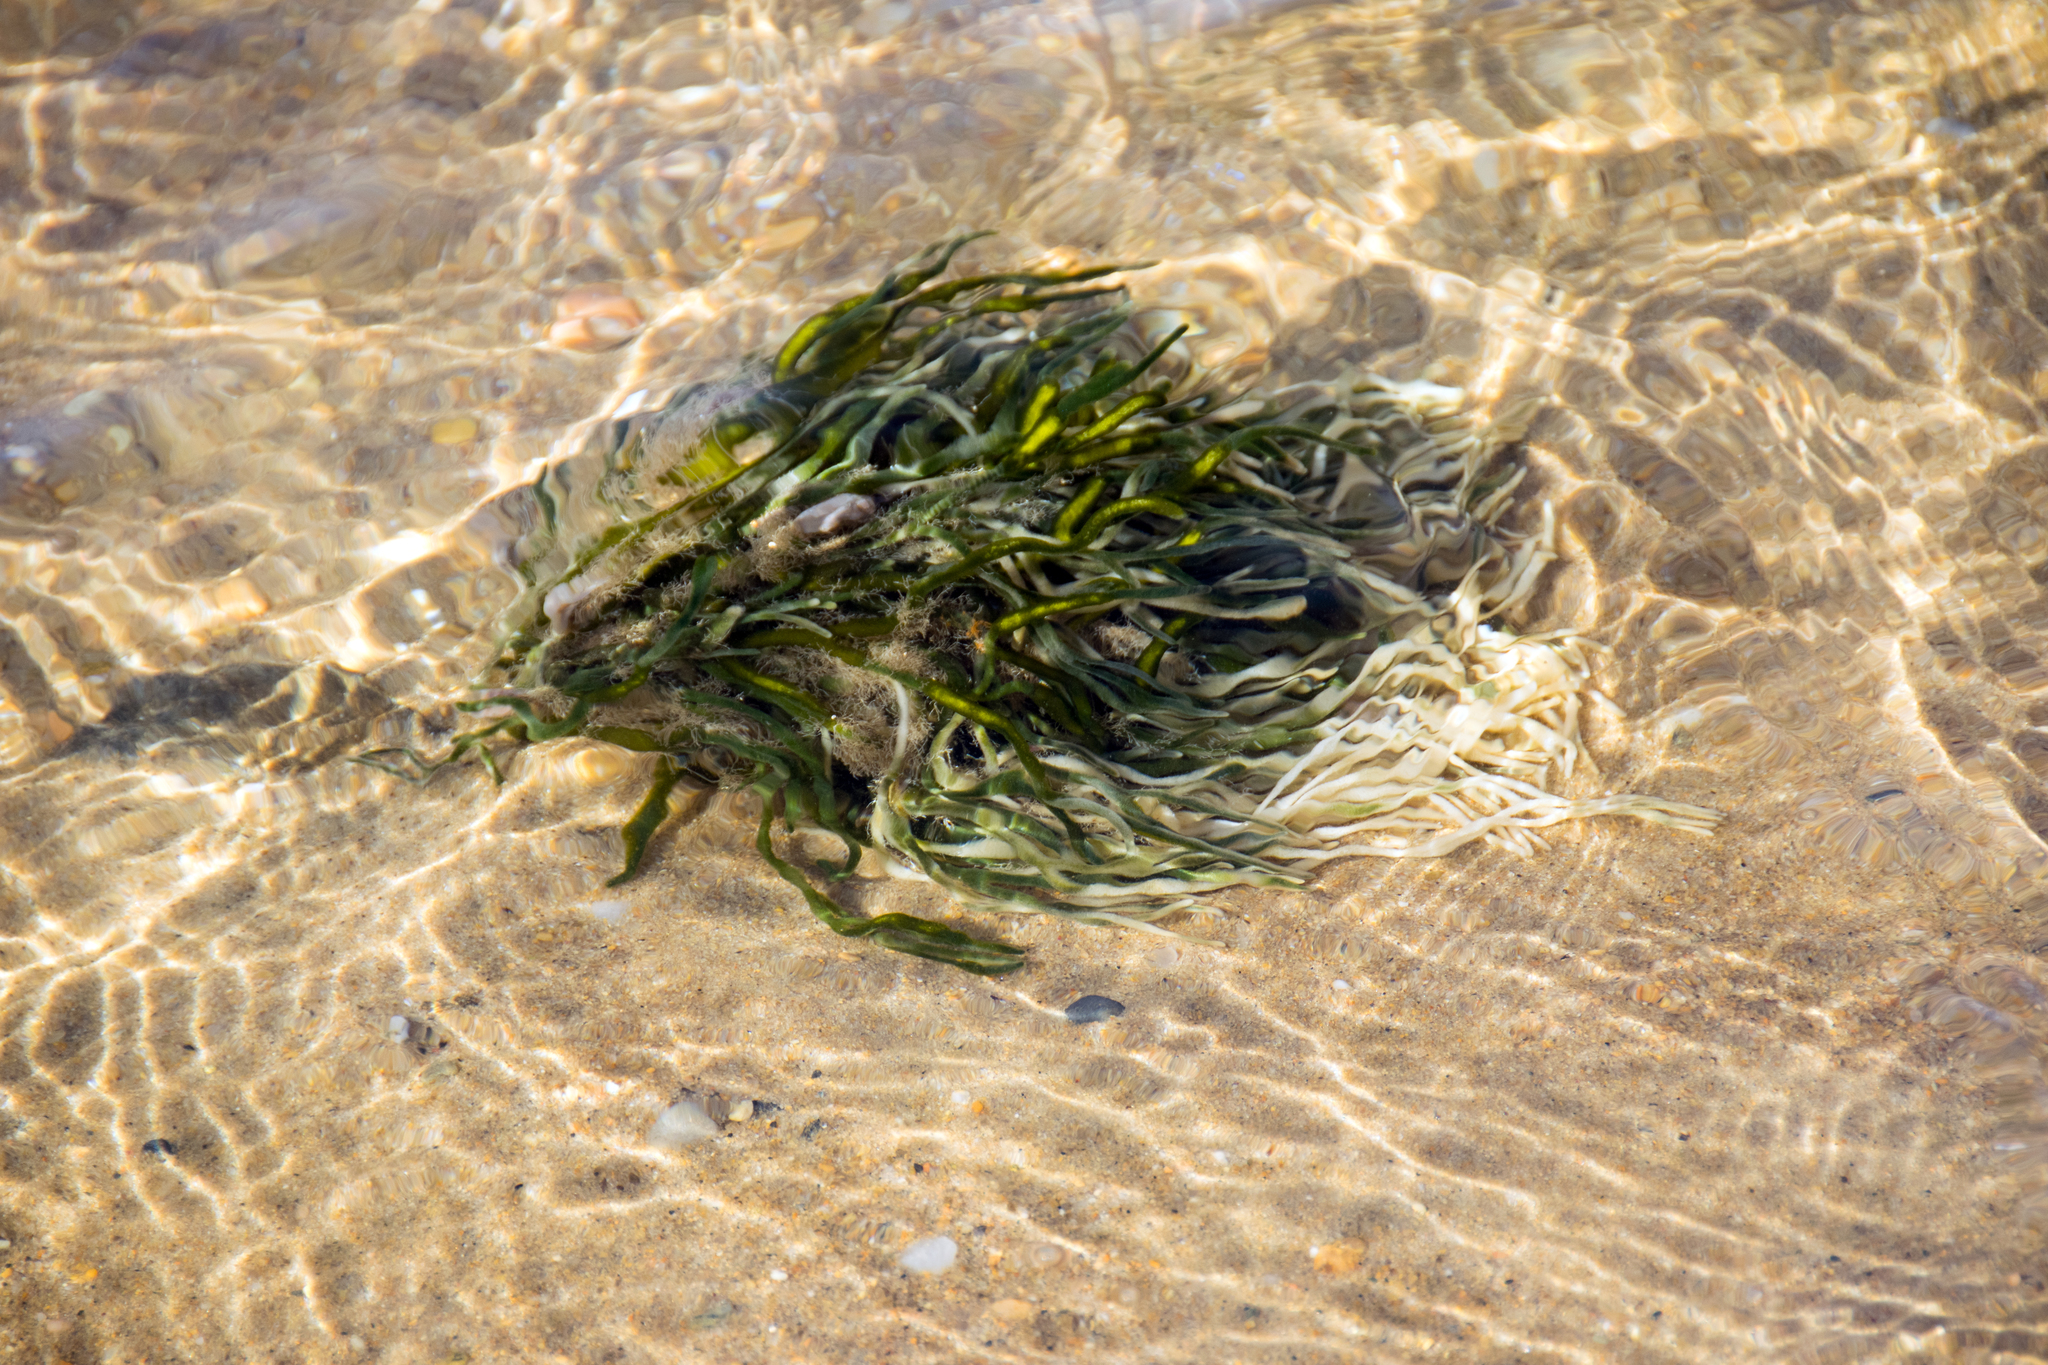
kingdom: Plantae
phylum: Chlorophyta
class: Ulvophyceae
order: Bryopsidales
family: Codiaceae
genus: Codium
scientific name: Codium fragile
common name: Dead man's fingers
